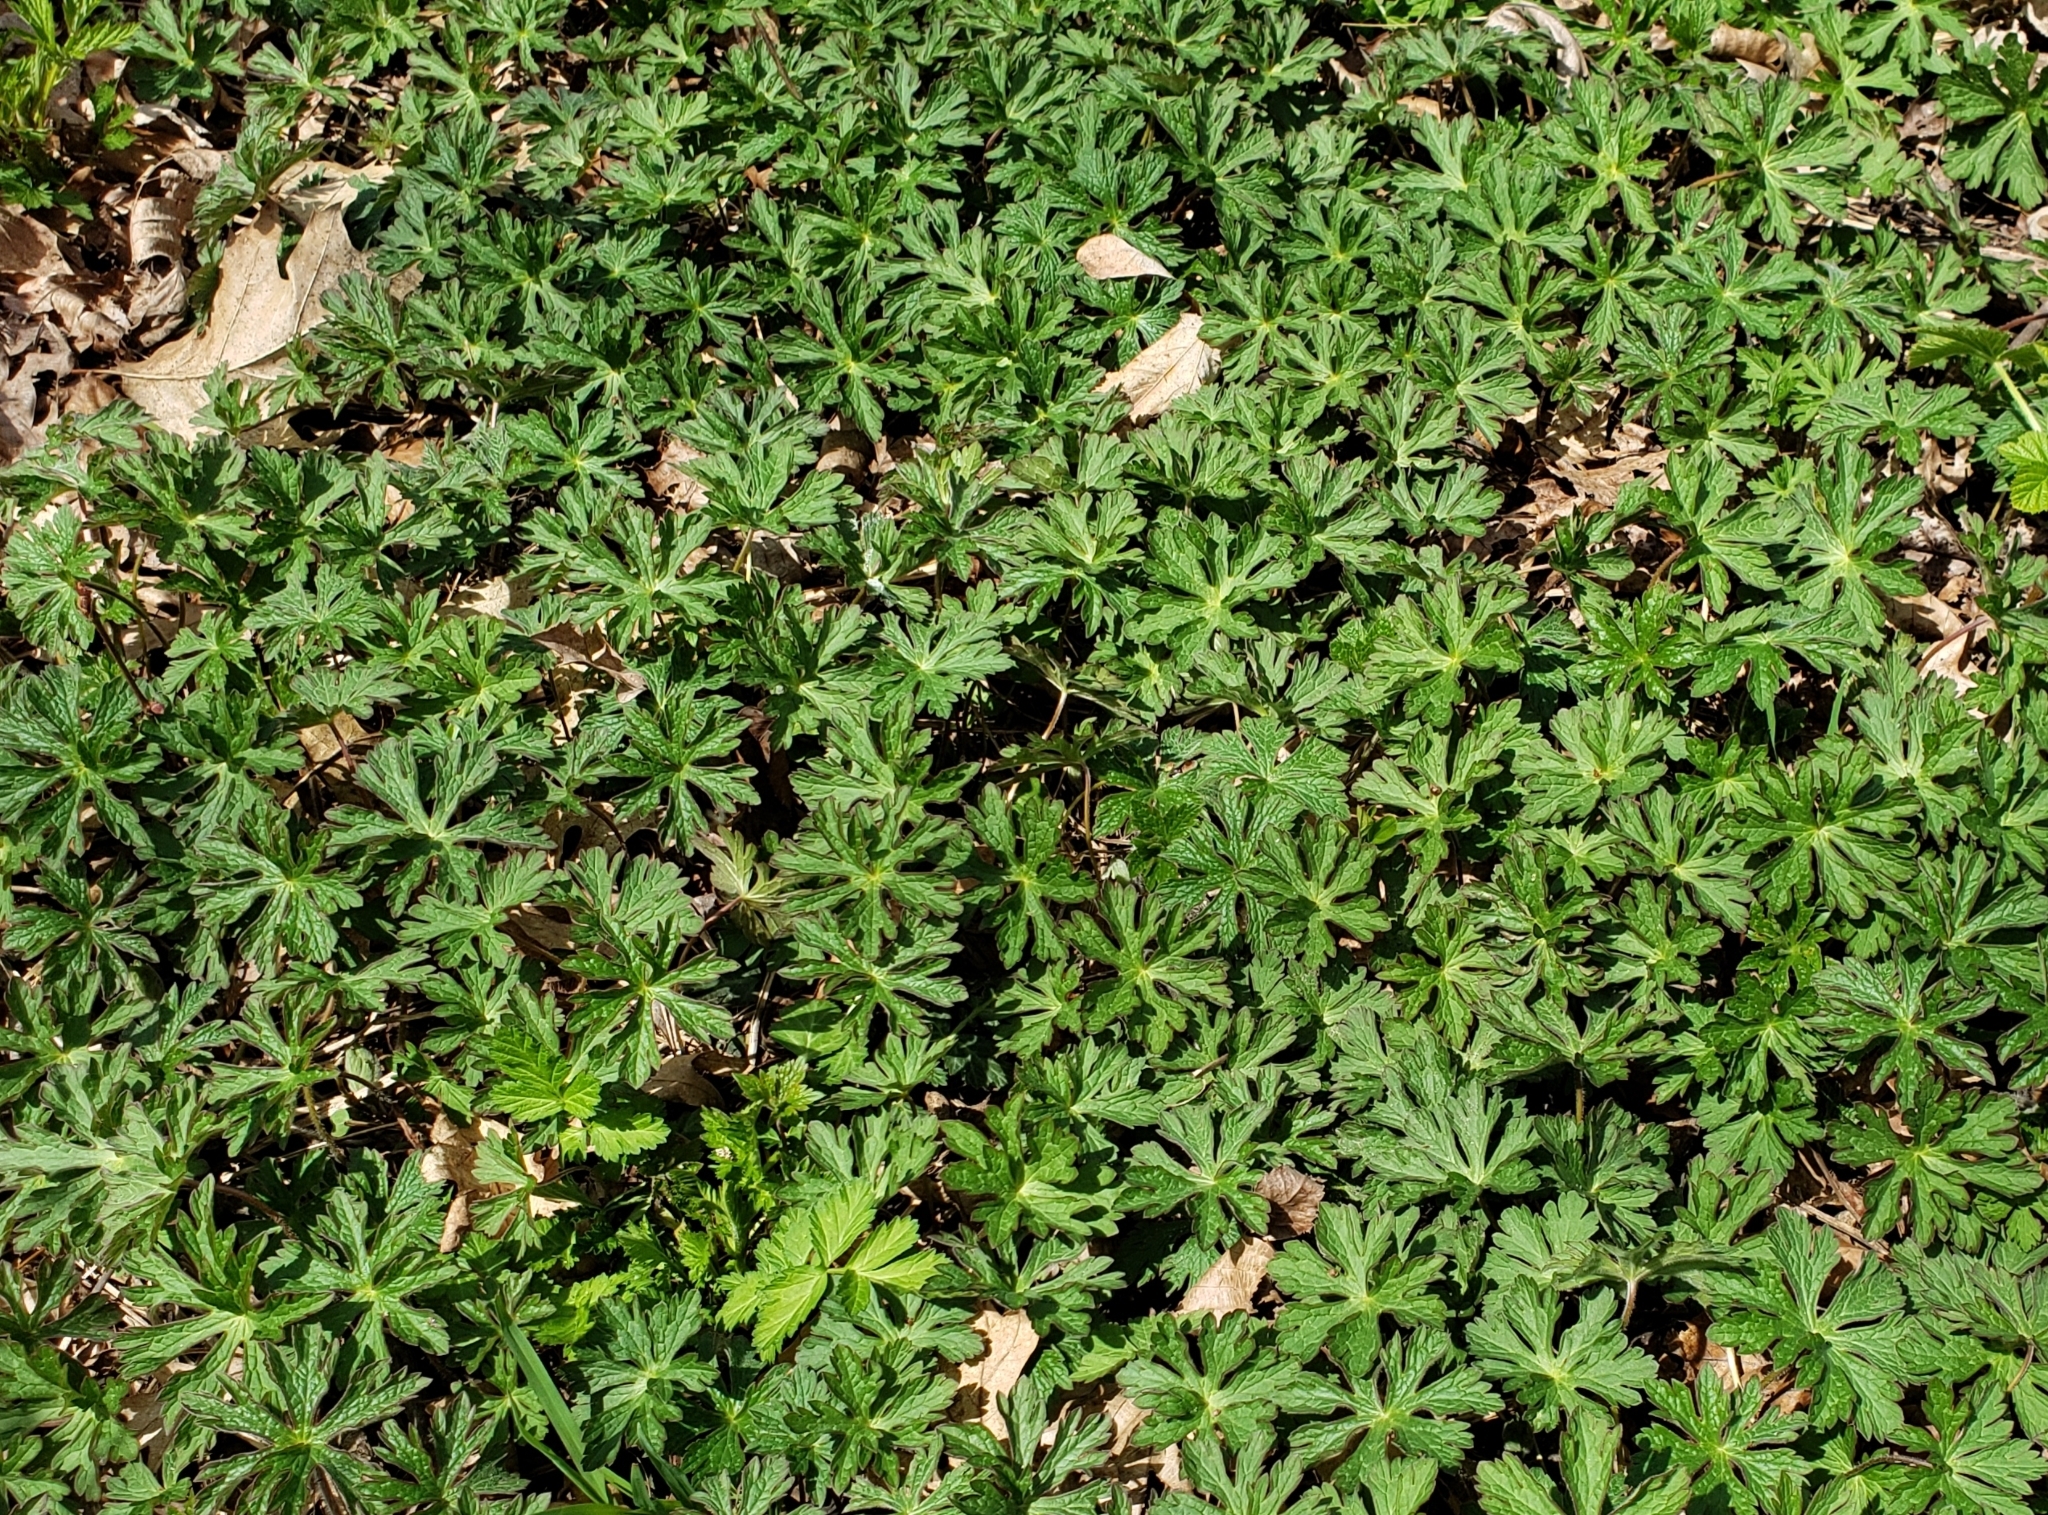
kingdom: Plantae
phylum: Tracheophyta
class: Magnoliopsida
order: Geraniales
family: Geraniaceae
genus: Geranium
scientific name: Geranium maculatum
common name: Spotted geranium
